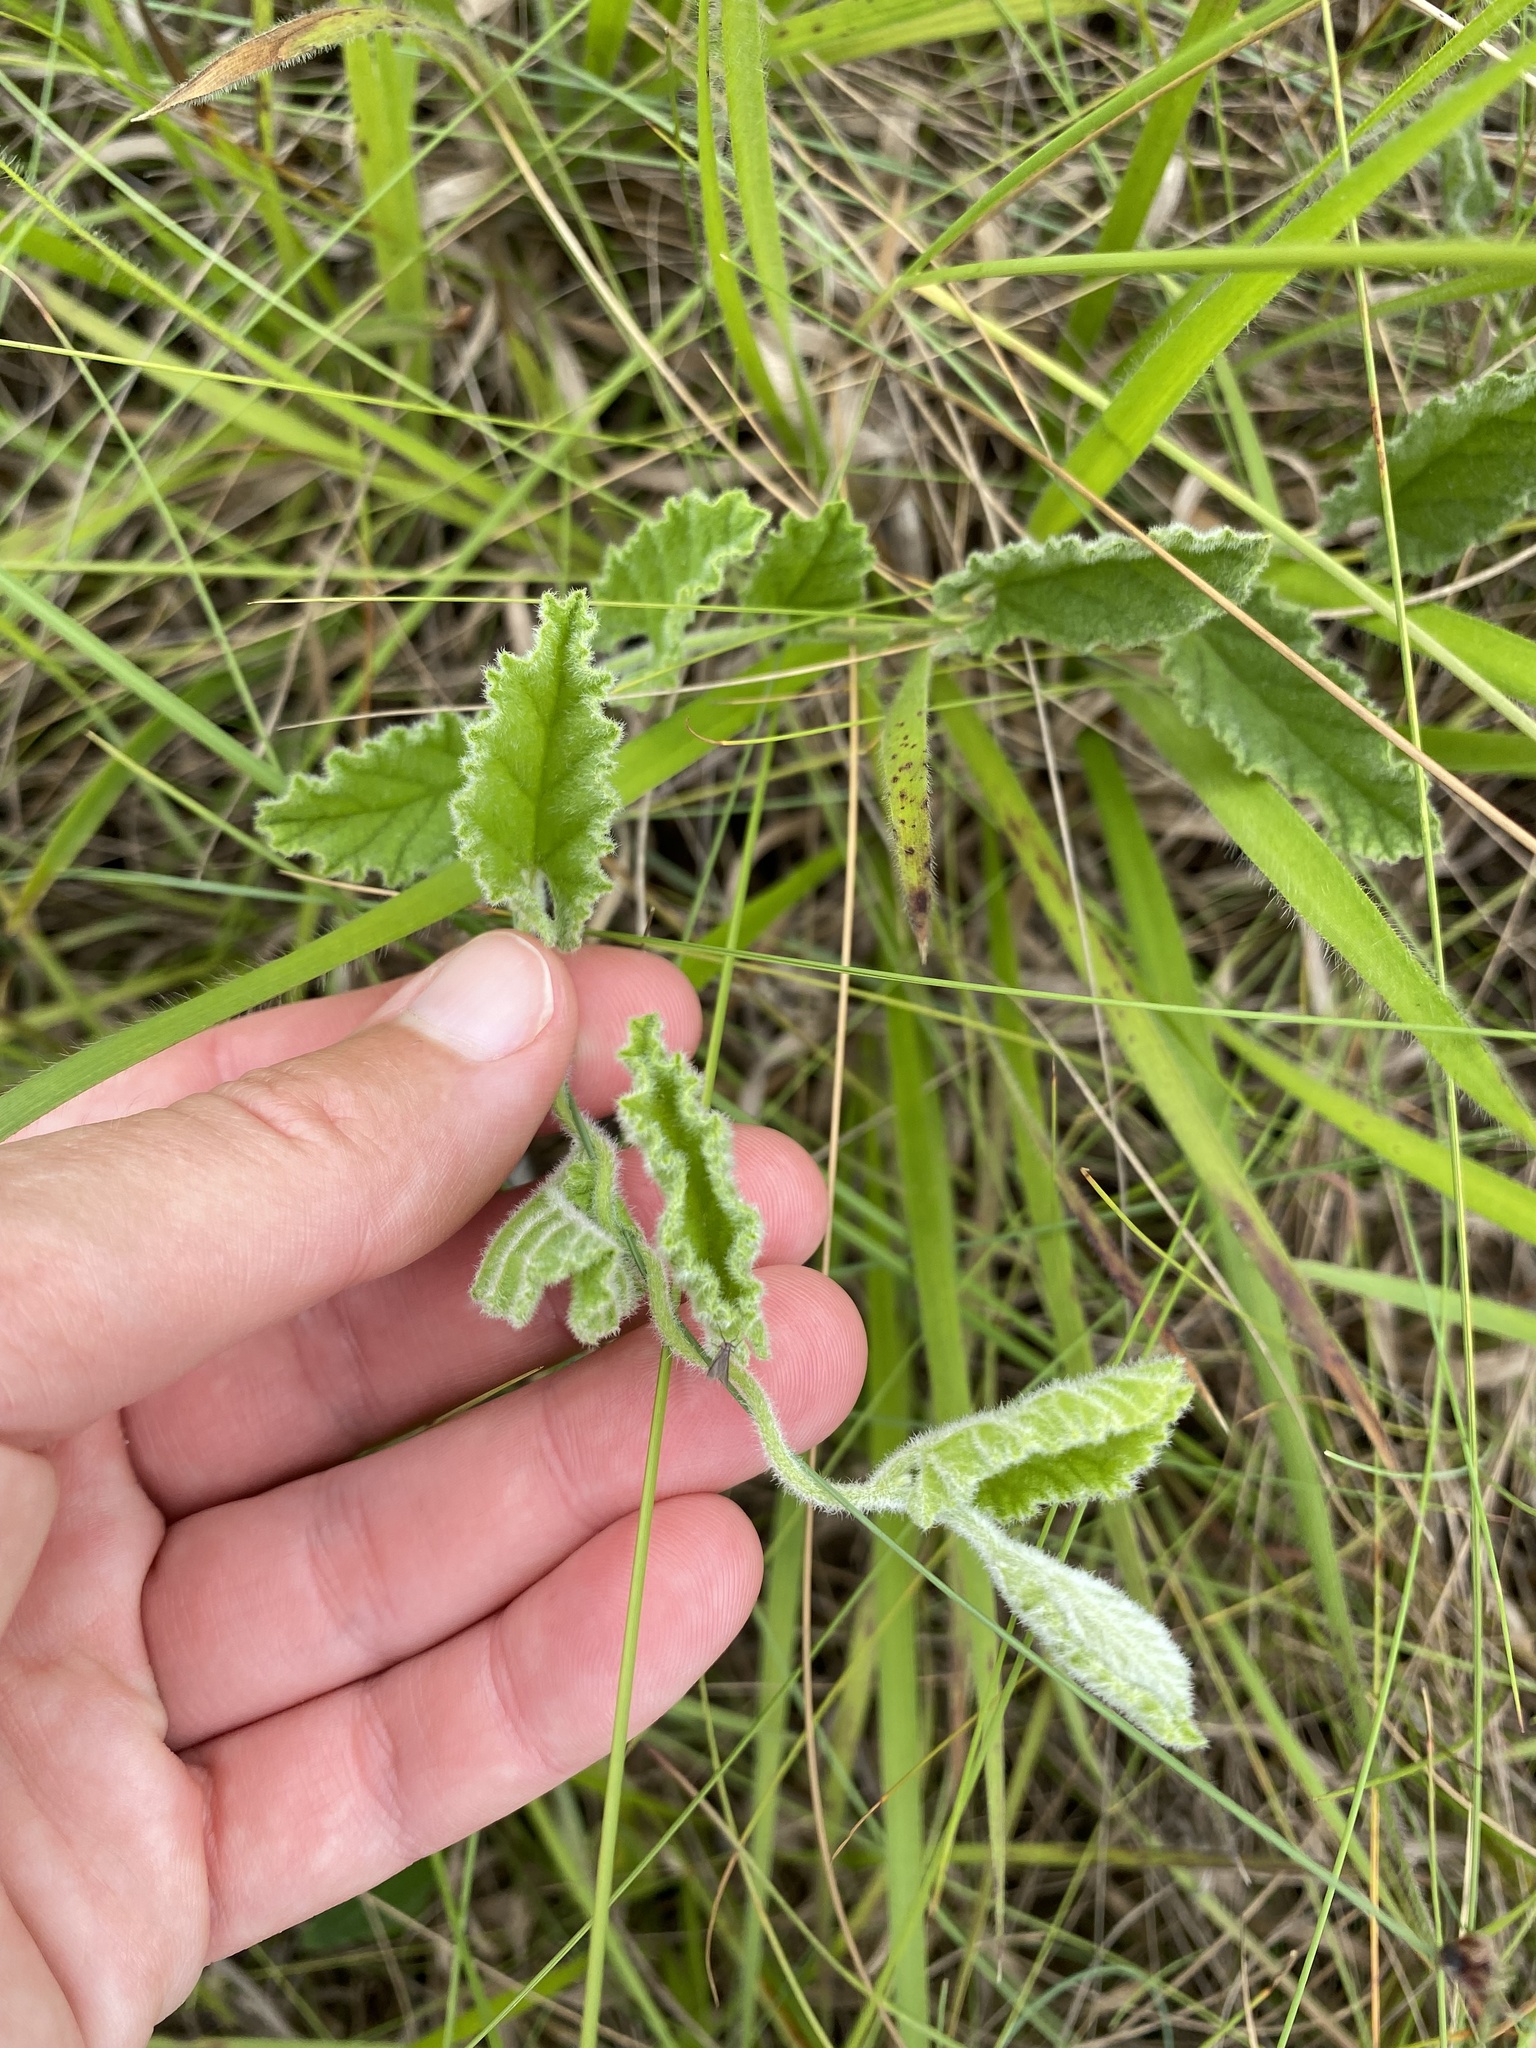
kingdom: Plantae
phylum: Tracheophyta
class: Magnoliopsida
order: Solanales
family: Convolvulaceae
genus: Convolvulus
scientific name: Convolvulus natalensis
